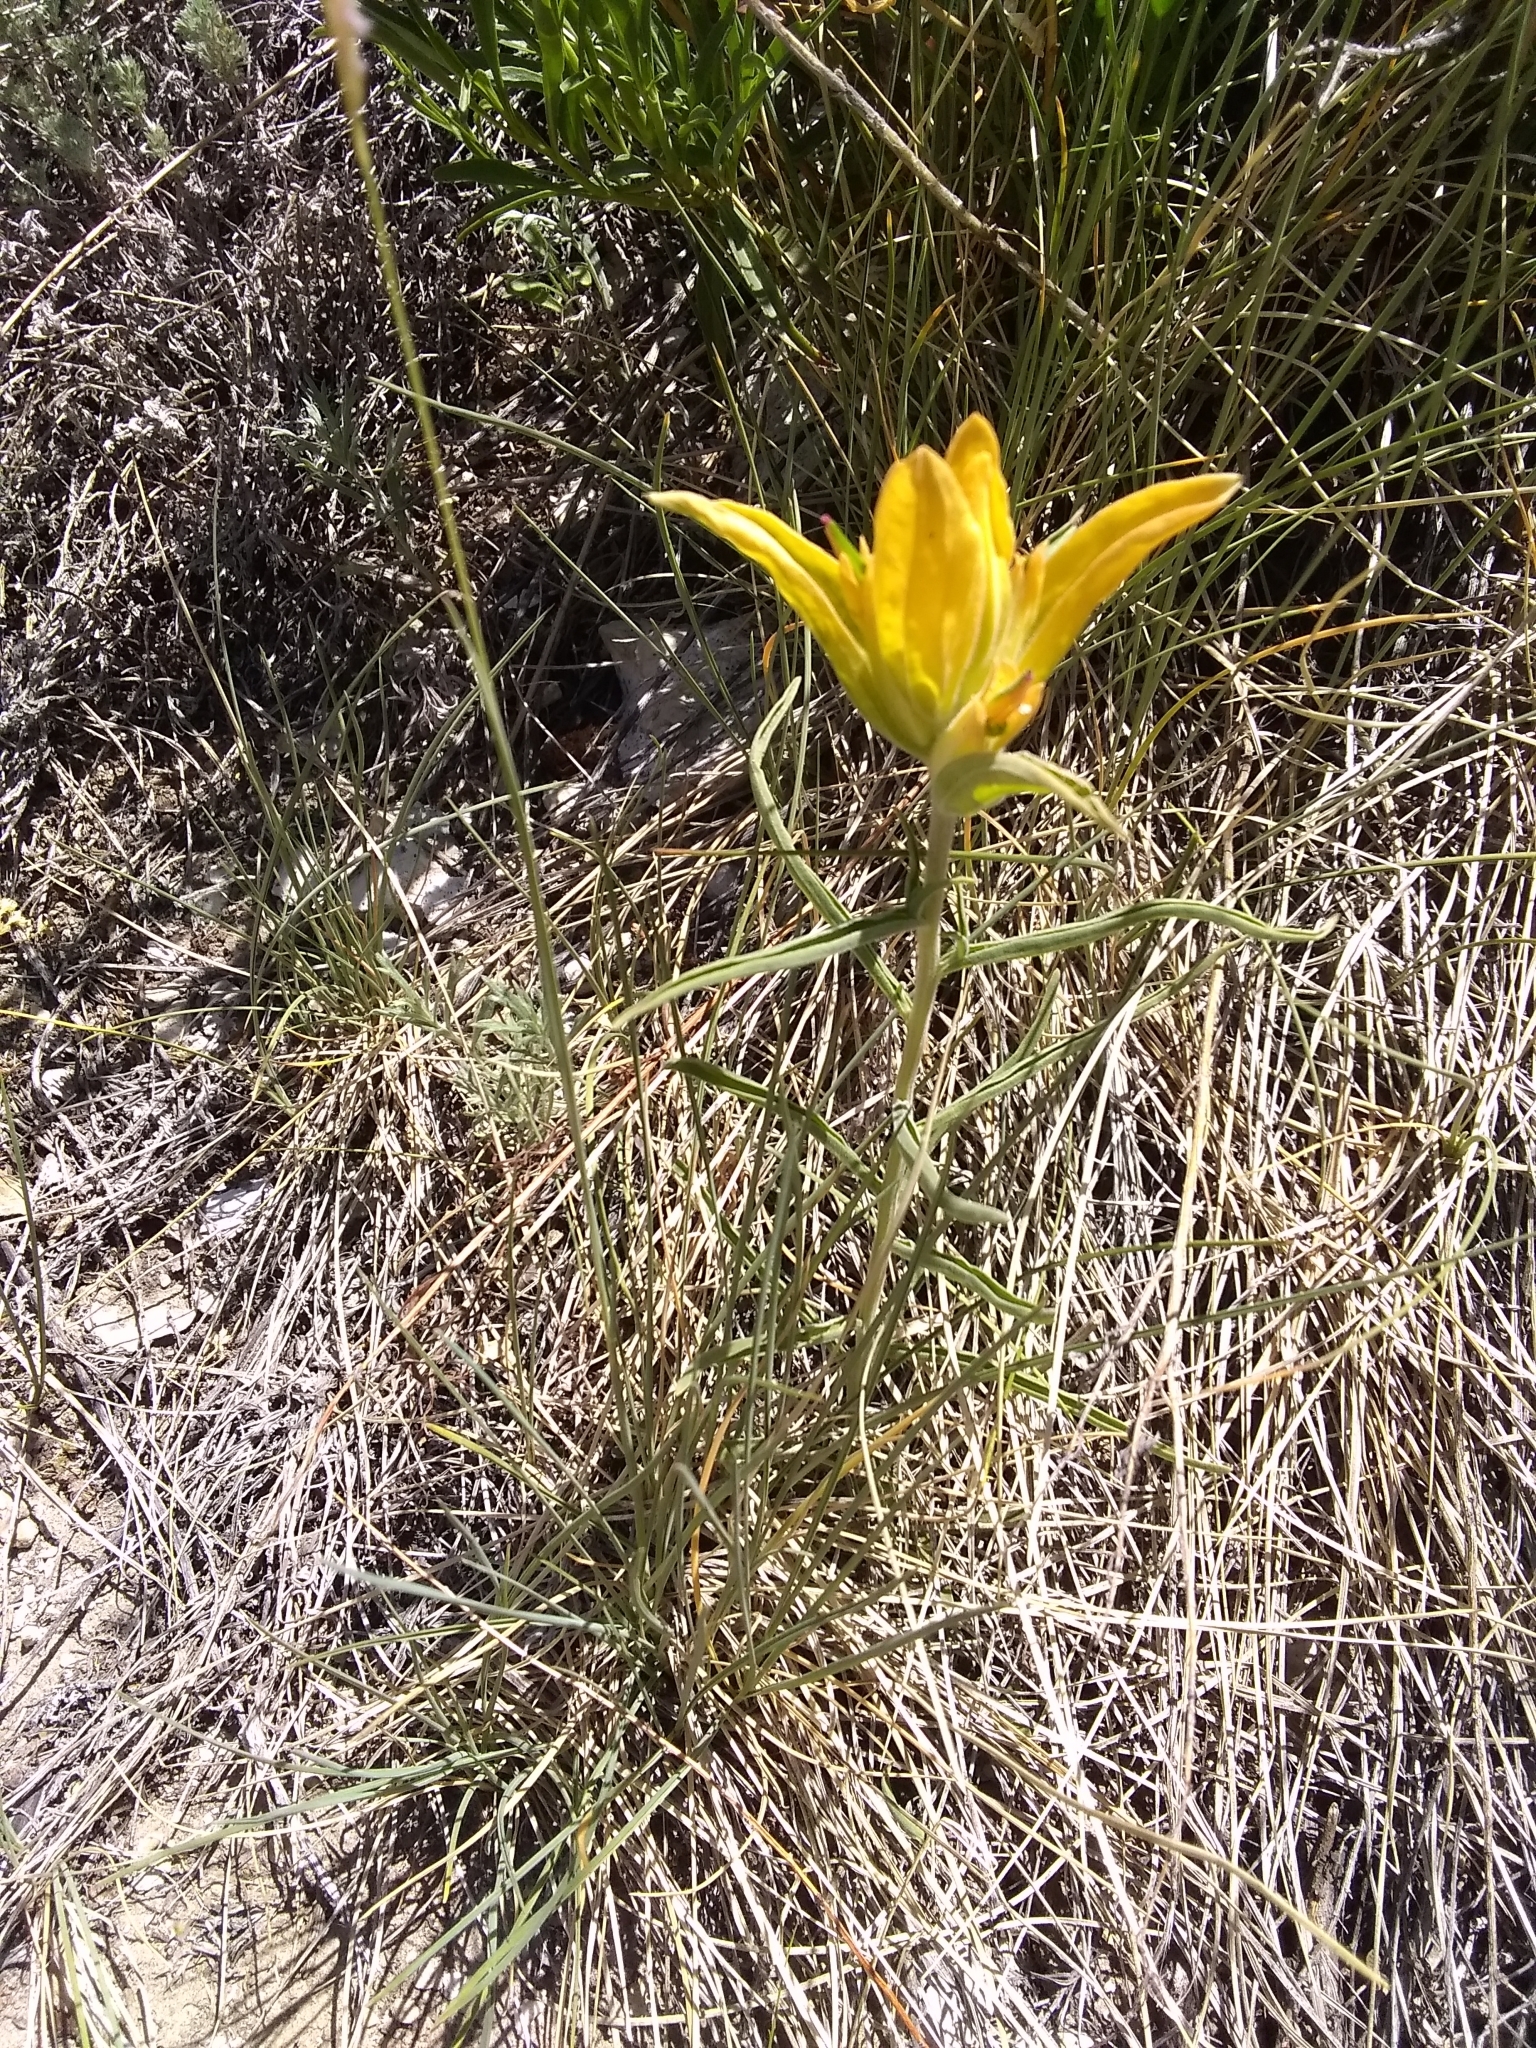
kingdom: Plantae
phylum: Tracheophyta
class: Magnoliopsida
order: Lamiales
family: Orobanchaceae
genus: Castilleja
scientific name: Castilleja integra
